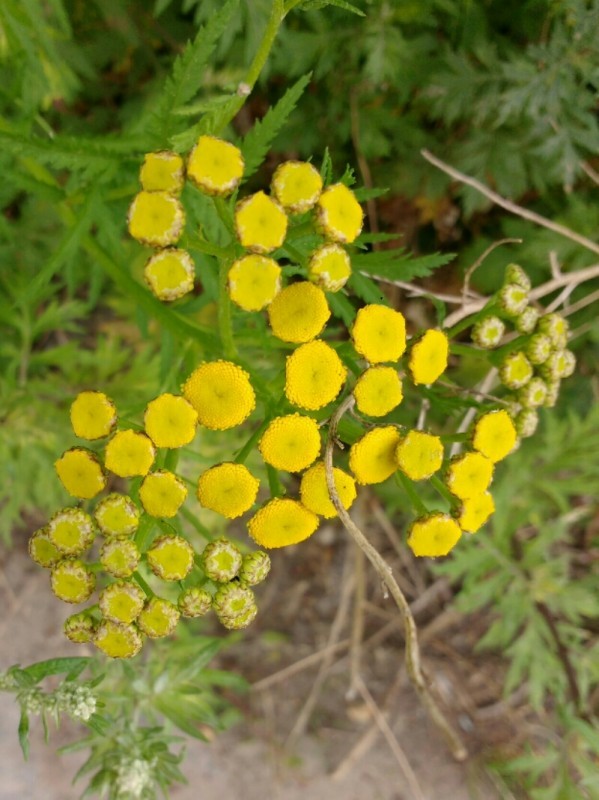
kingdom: Plantae
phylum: Tracheophyta
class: Magnoliopsida
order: Asterales
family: Asteraceae
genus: Tanacetum
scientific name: Tanacetum vulgare
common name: Common tansy
